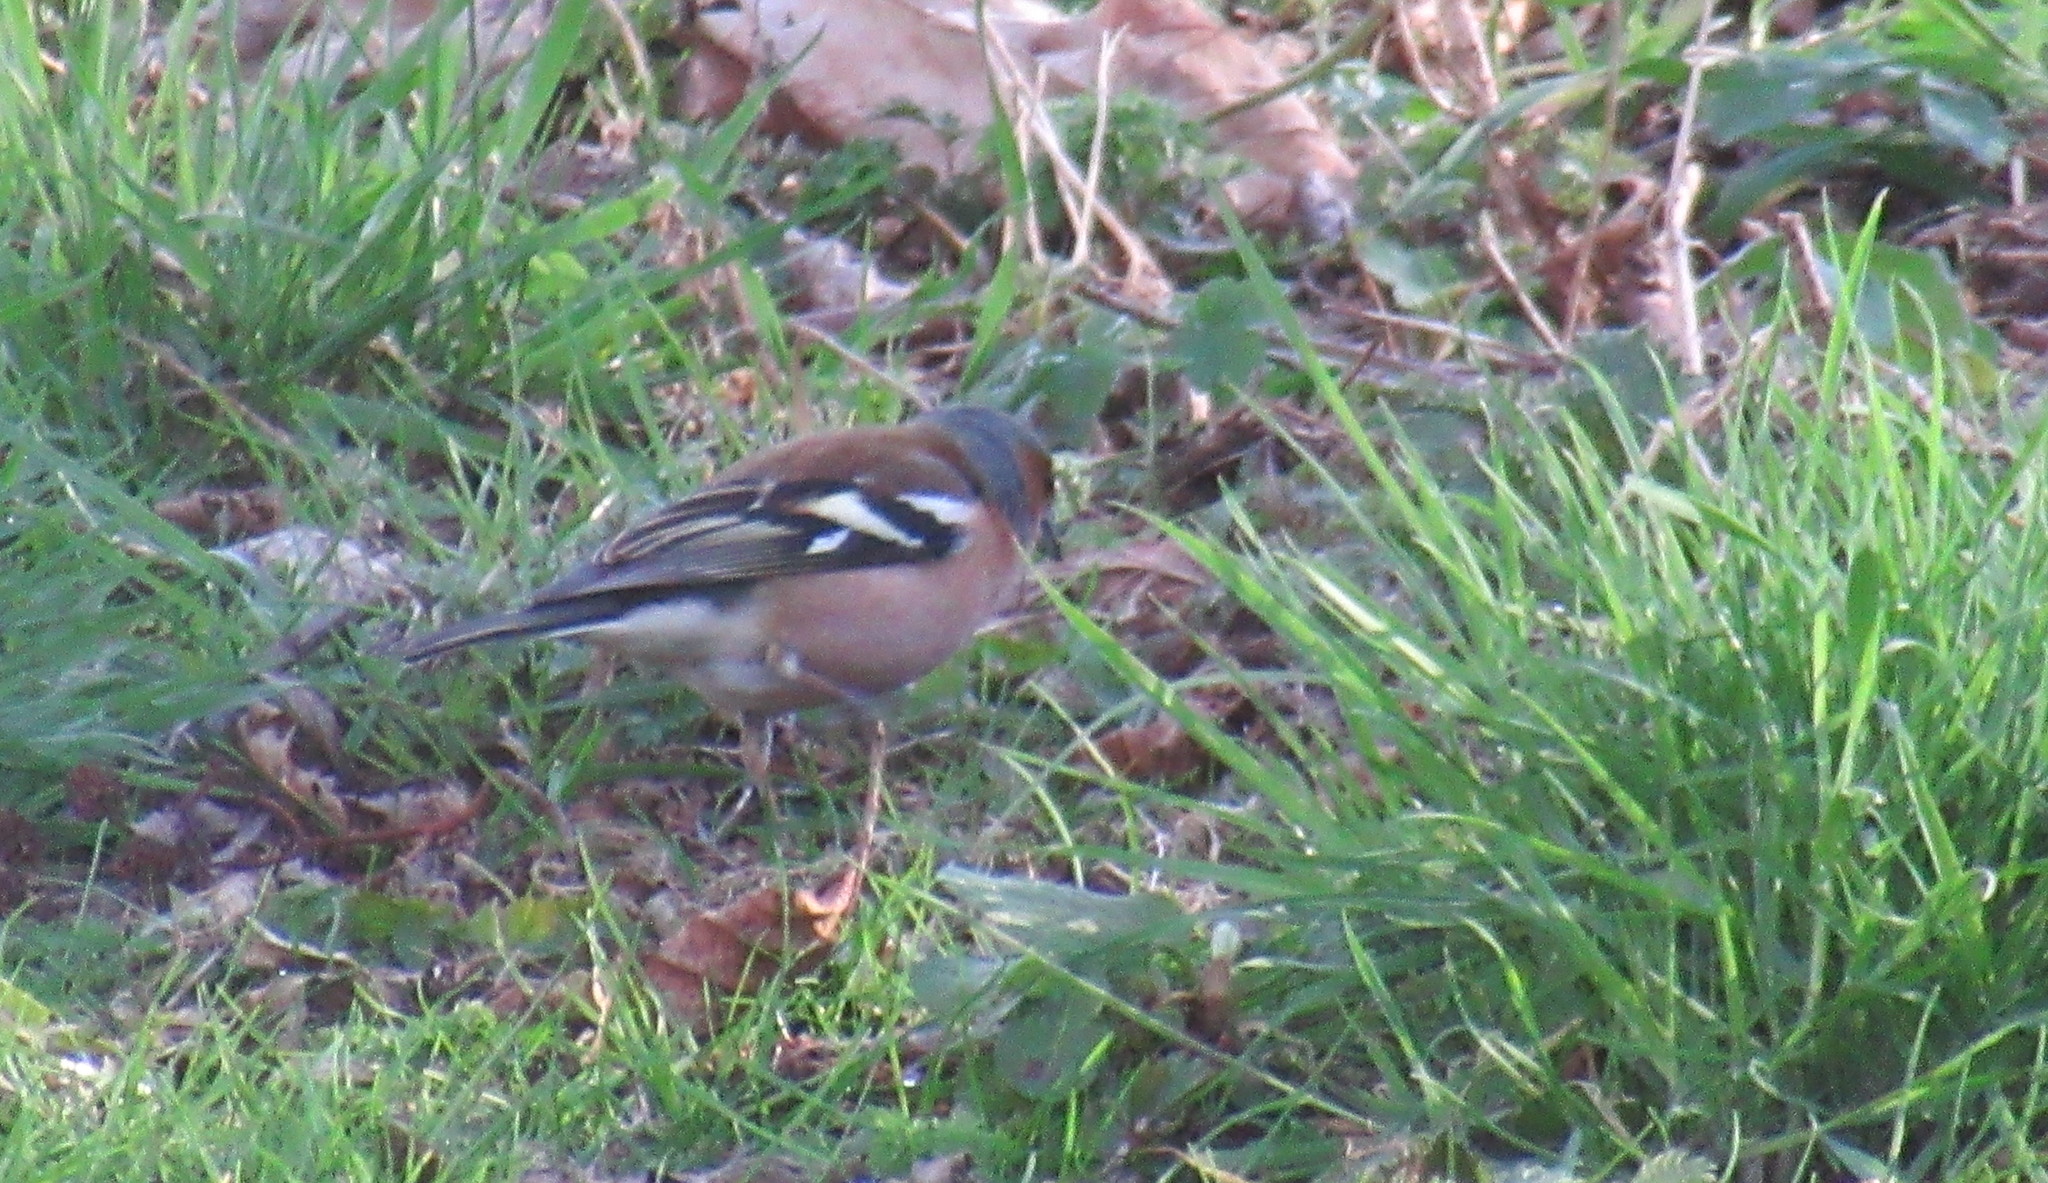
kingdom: Animalia
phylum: Chordata
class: Aves
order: Passeriformes
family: Fringillidae
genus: Fringilla
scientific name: Fringilla coelebs
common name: Common chaffinch
